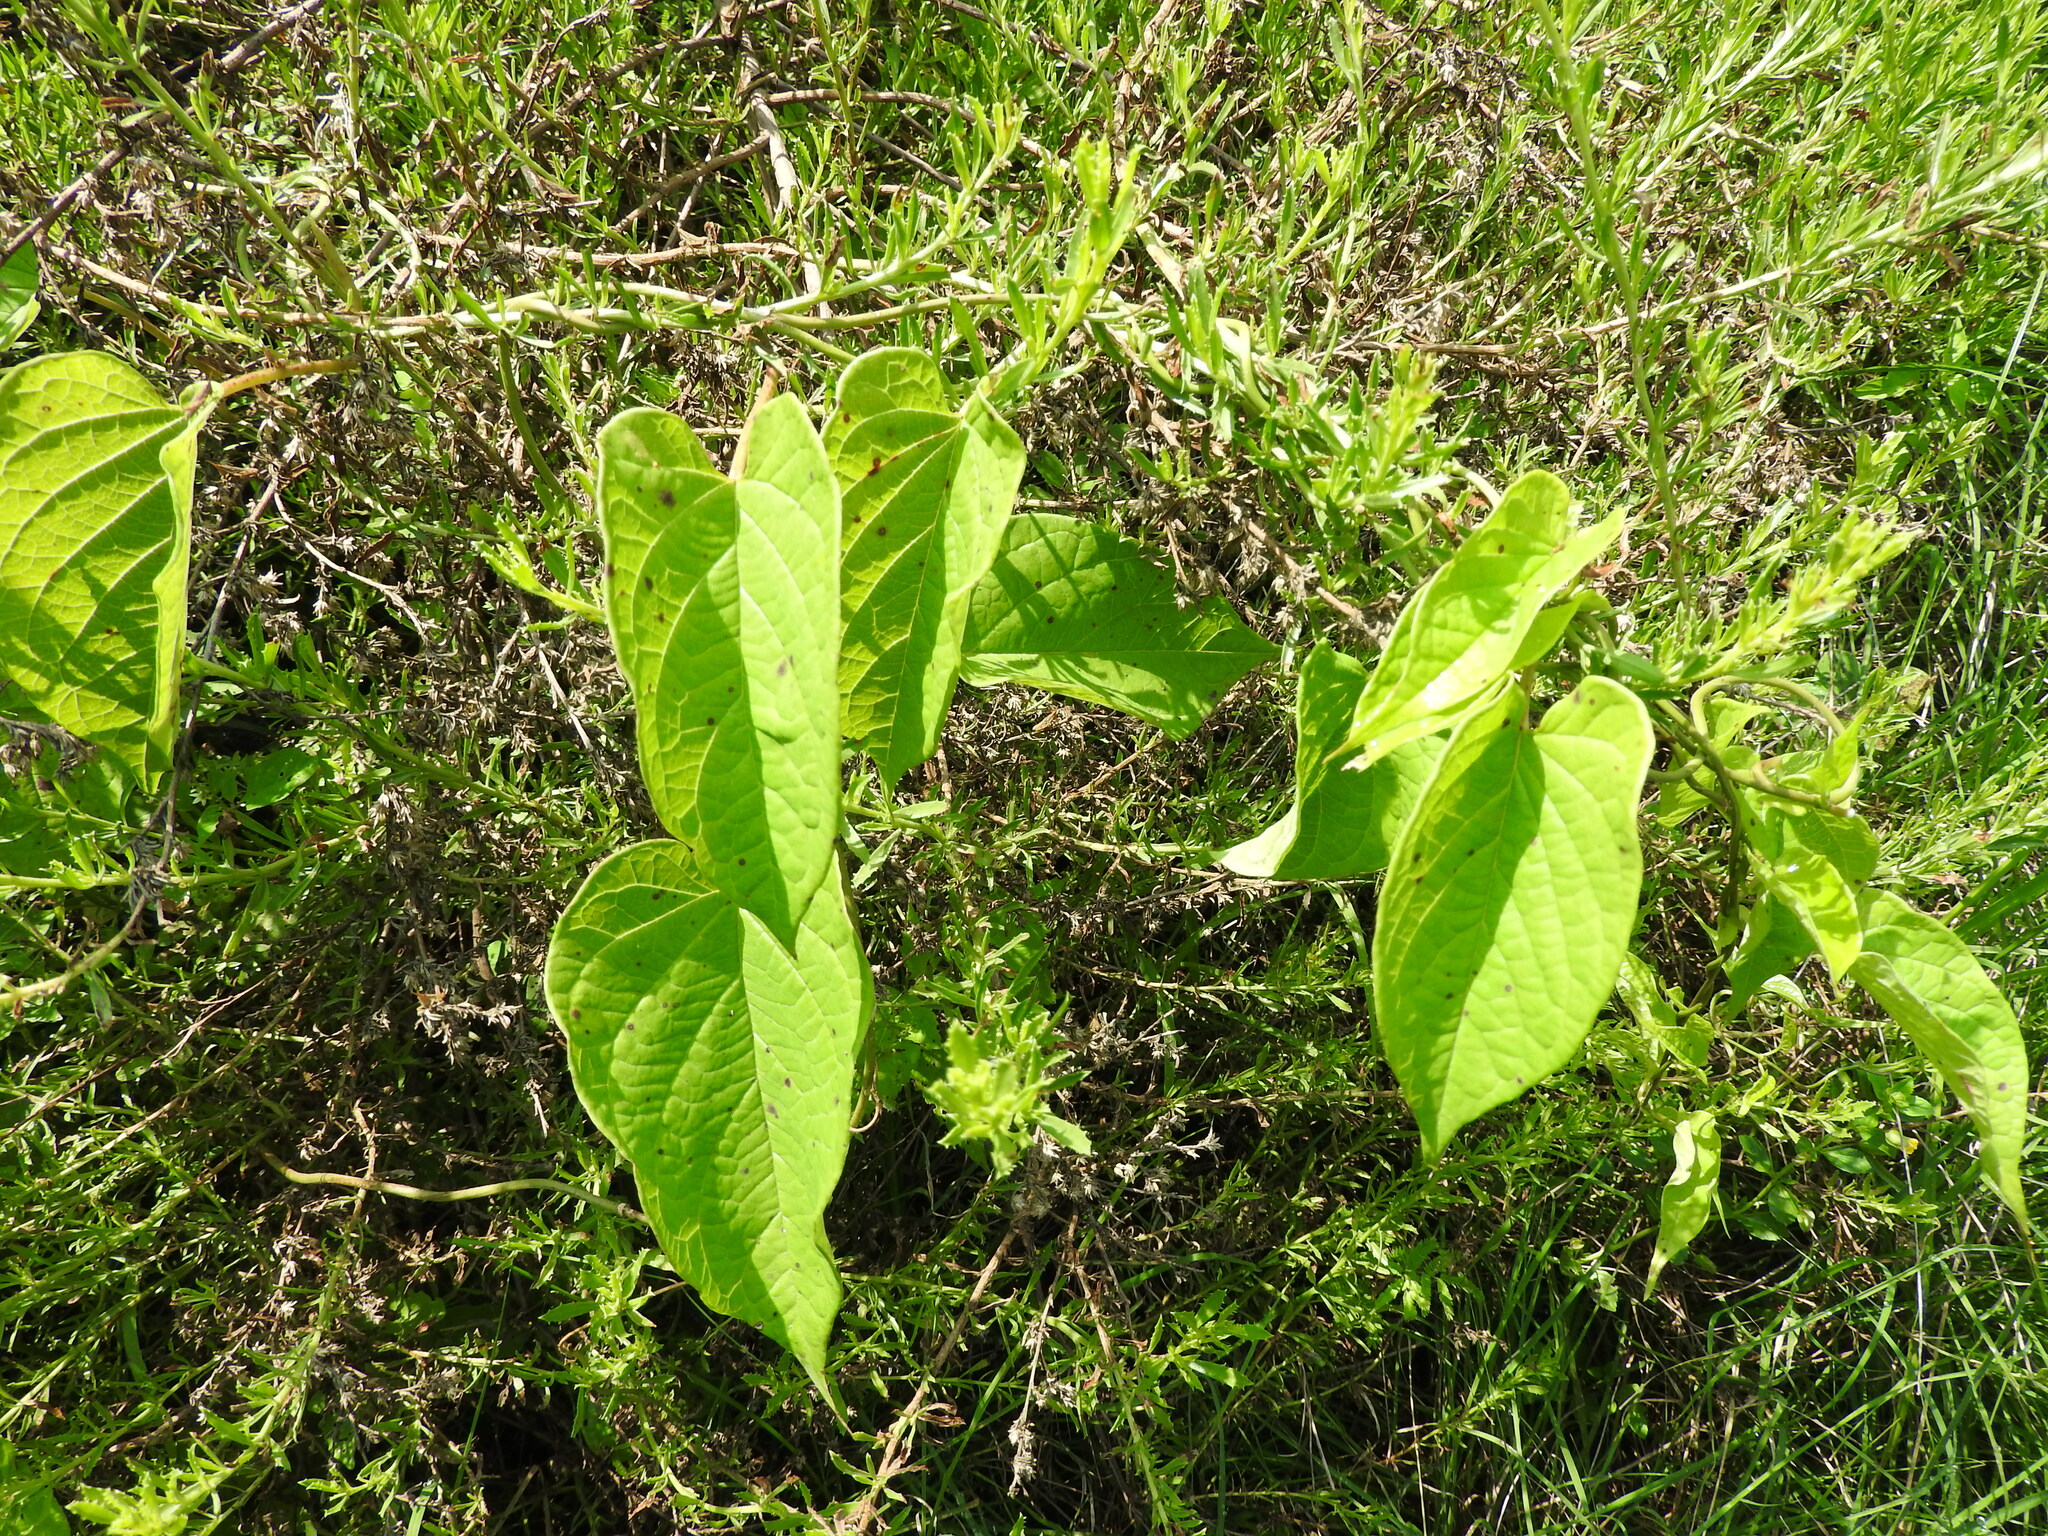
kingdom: Plantae
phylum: Tracheophyta
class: Magnoliopsida
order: Gentianales
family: Apocynaceae
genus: Cynanchum
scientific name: Cynanchum foetidum
